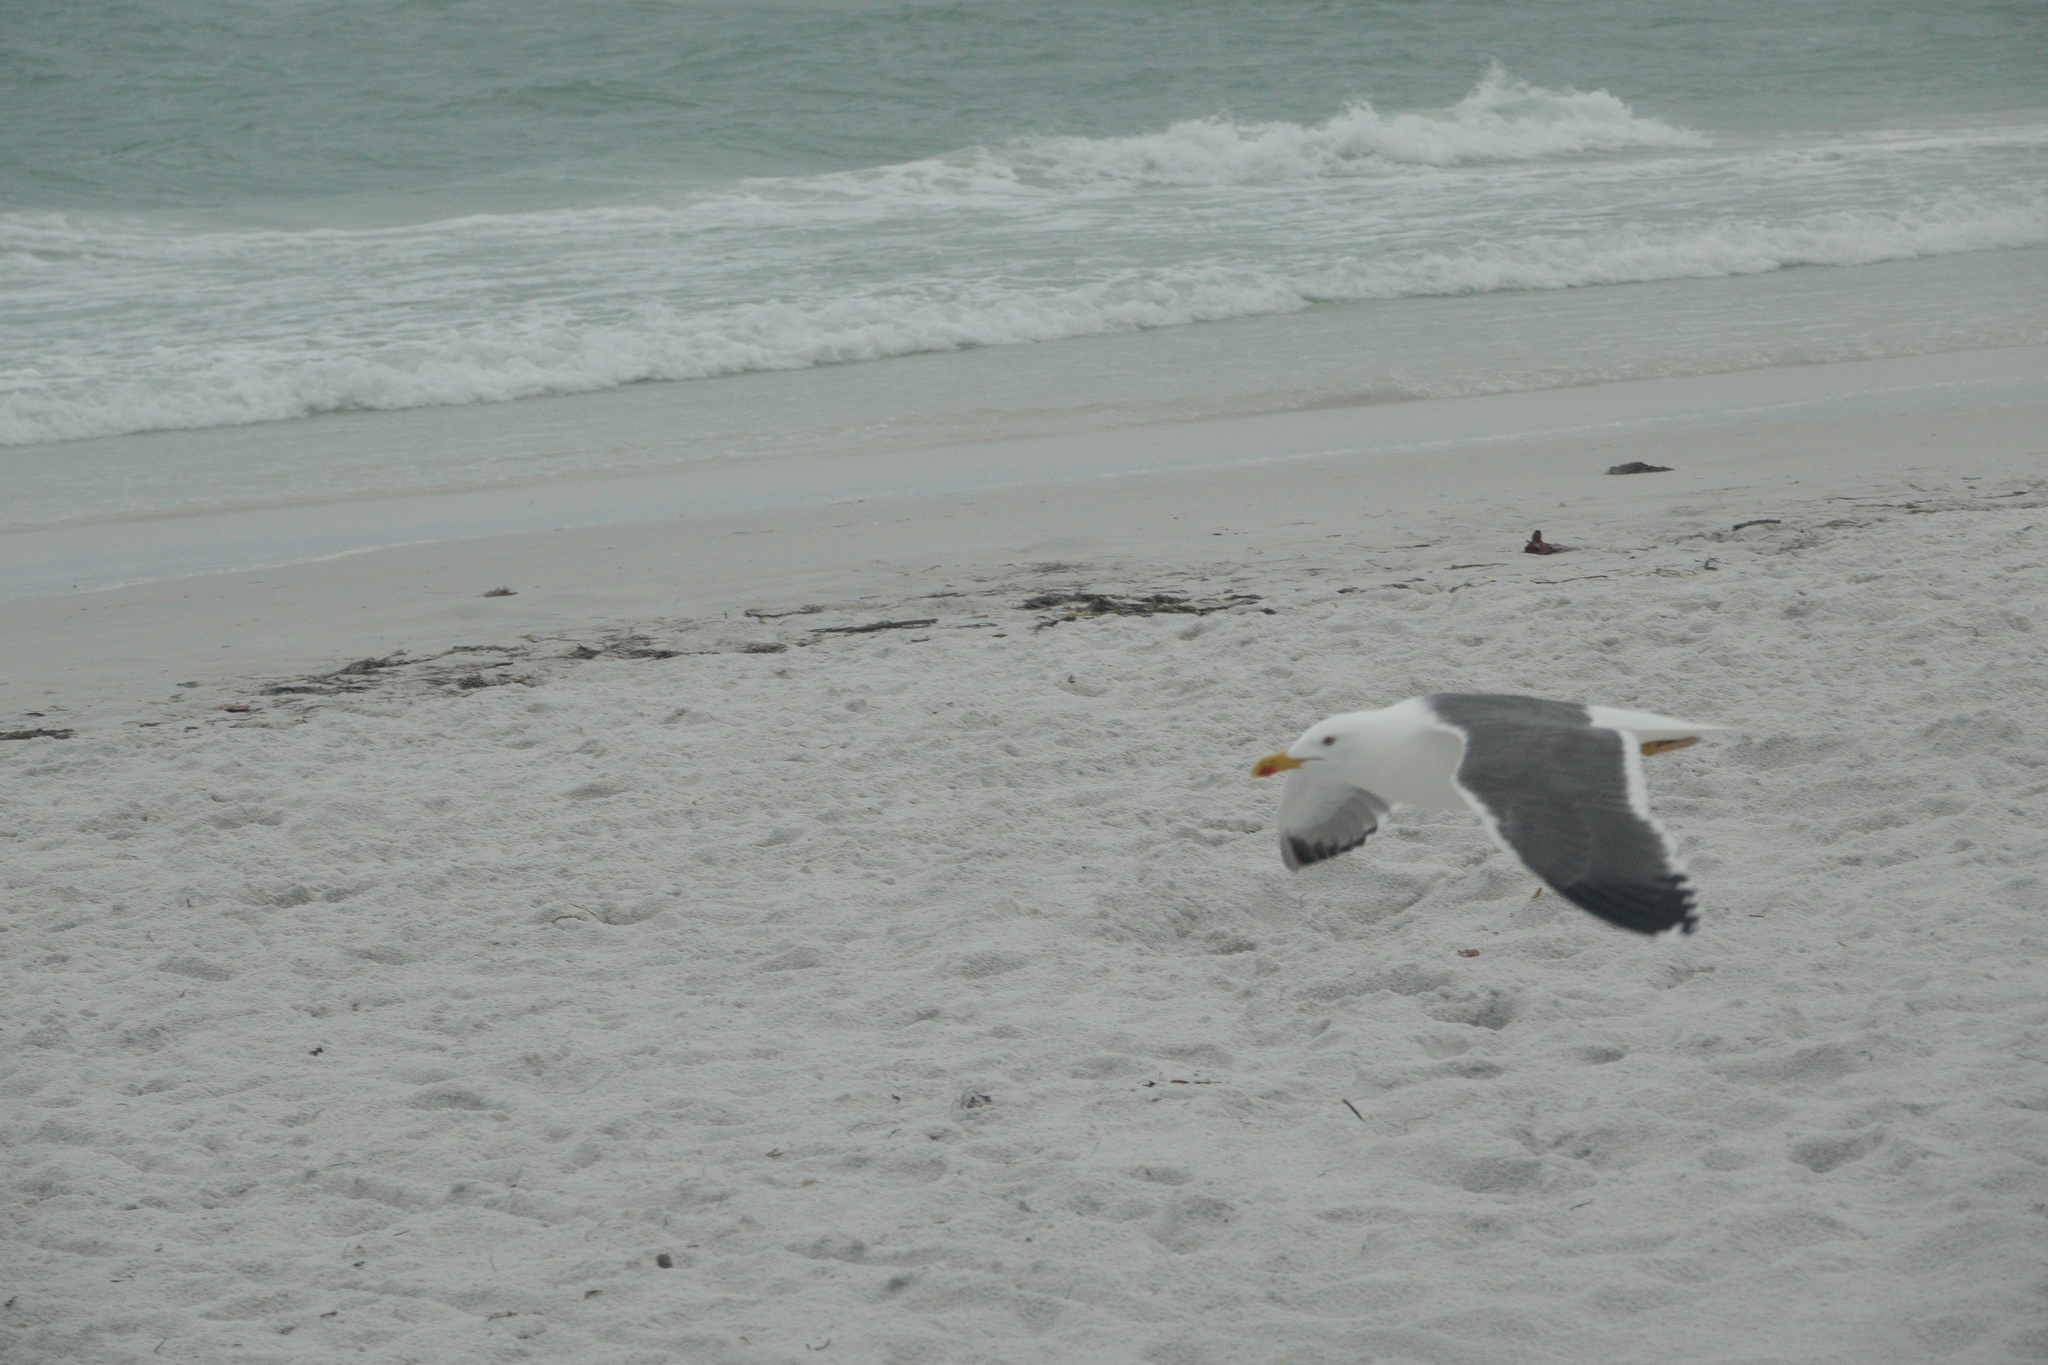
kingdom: Animalia
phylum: Chordata
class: Aves
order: Charadriiformes
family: Laridae
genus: Larus
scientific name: Larus fuscus
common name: Lesser black-backed gull
